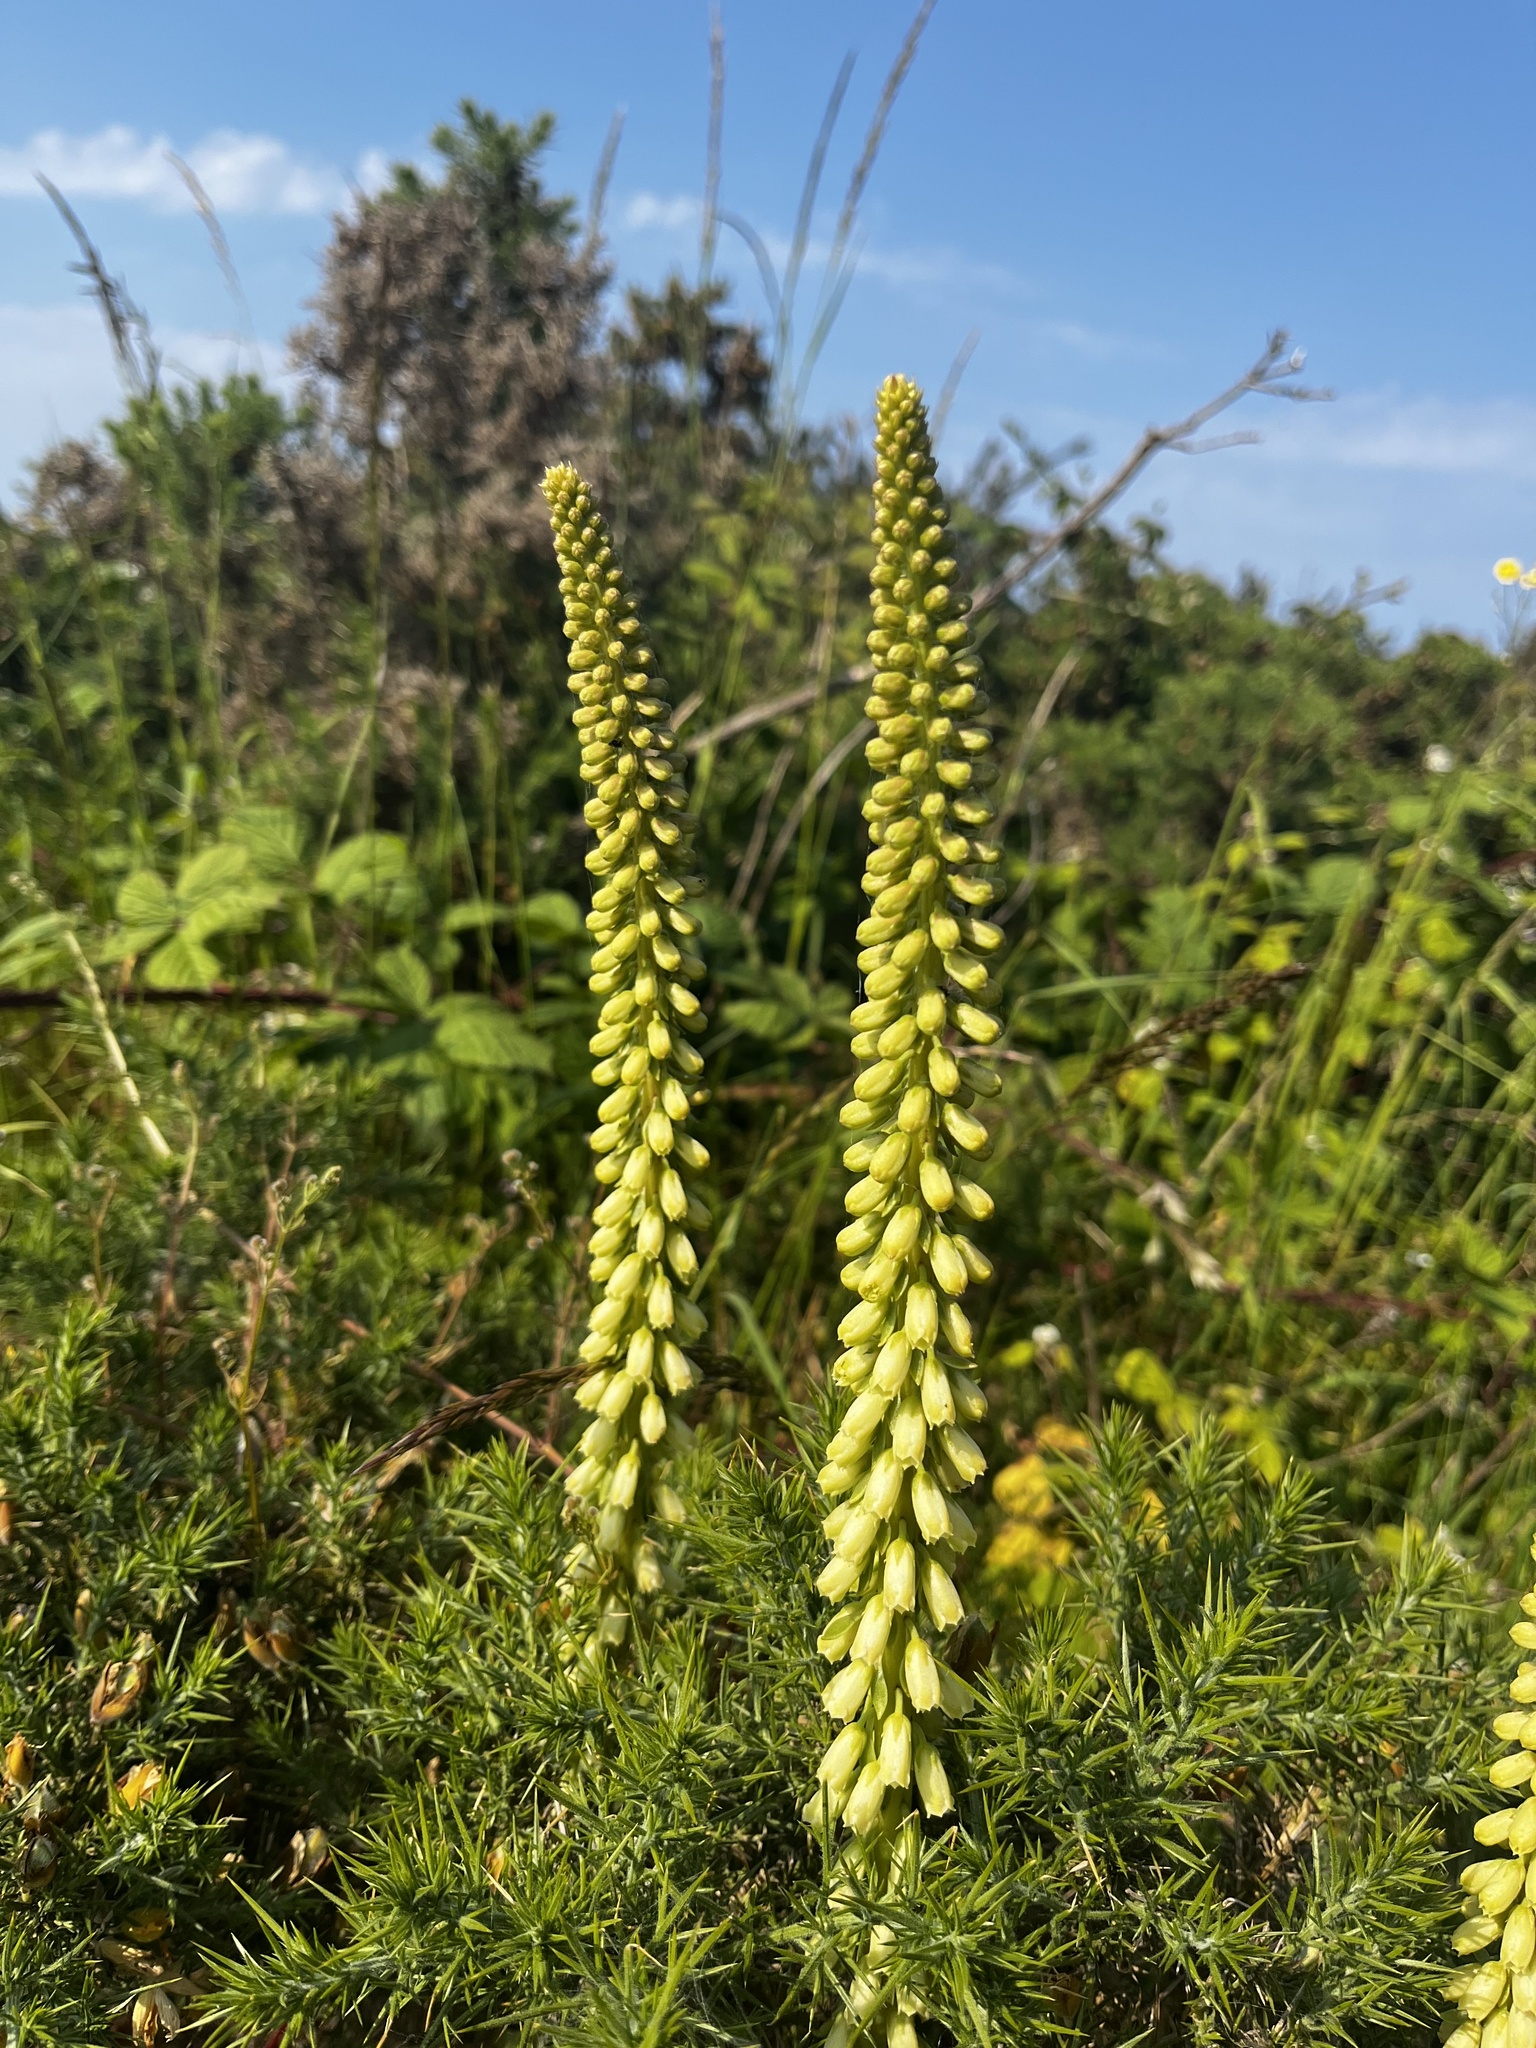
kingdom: Plantae
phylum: Tracheophyta
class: Magnoliopsida
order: Saxifragales
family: Crassulaceae
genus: Umbilicus
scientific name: Umbilicus rupestris
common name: Navelwort
